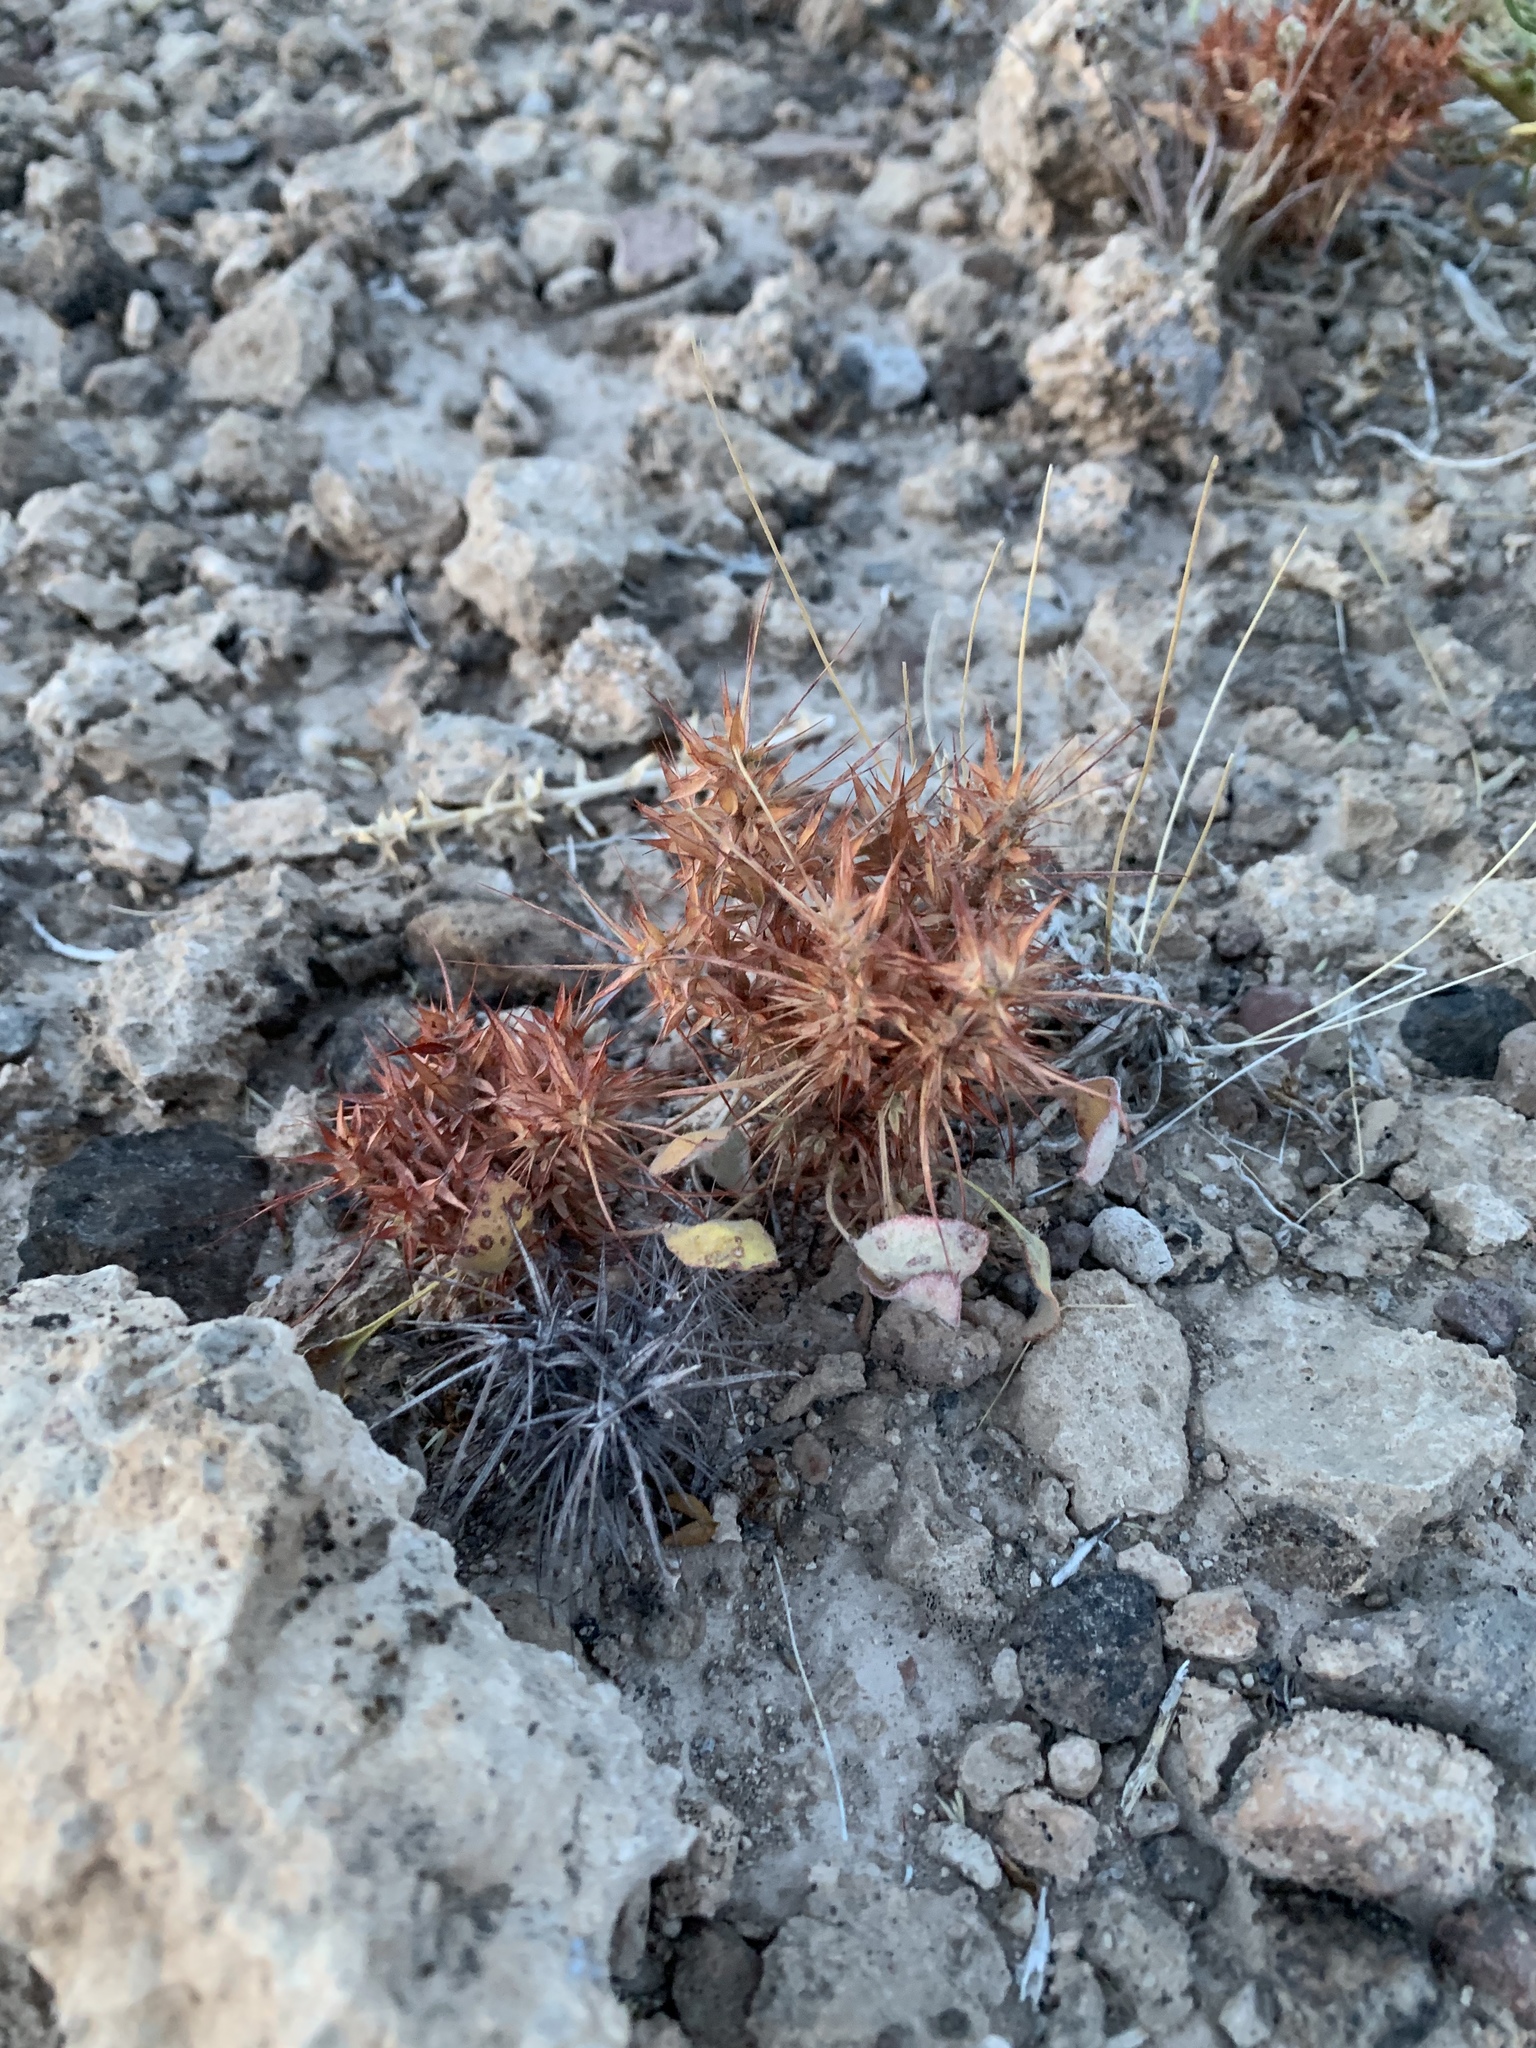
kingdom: Plantae
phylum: Tracheophyta
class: Magnoliopsida
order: Caryophyllales
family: Polygonaceae
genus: Chorizanthe
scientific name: Chorizanthe rigida
